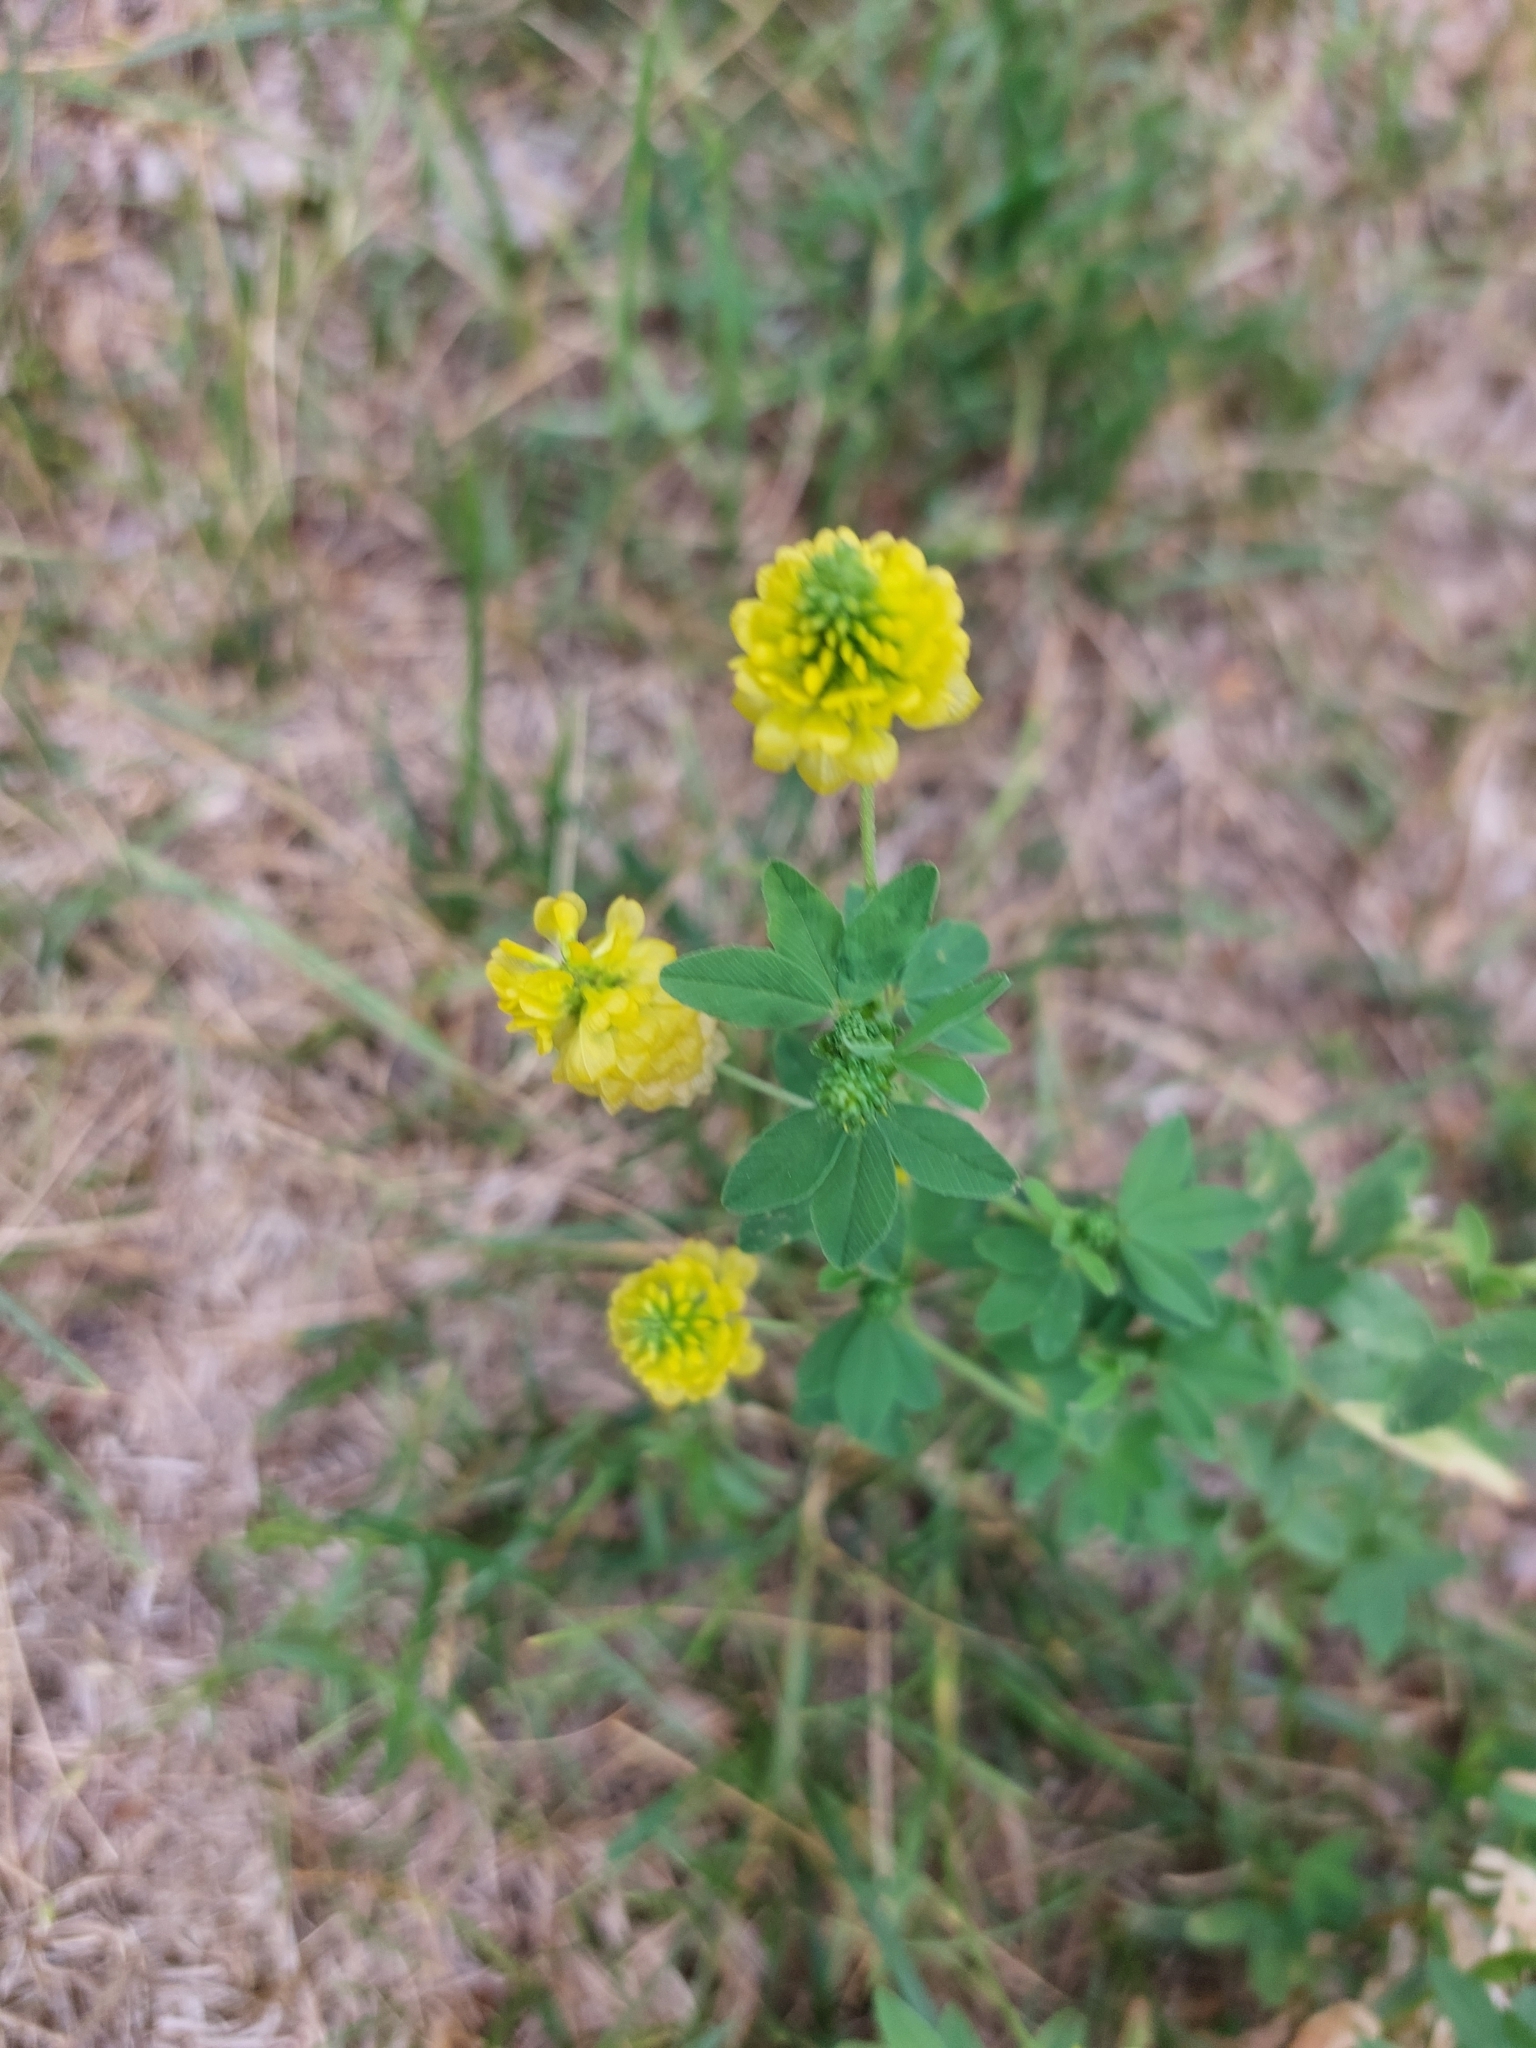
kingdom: Plantae
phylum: Tracheophyta
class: Magnoliopsida
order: Fabales
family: Fabaceae
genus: Trifolium
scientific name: Trifolium aureum
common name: Golden clover
